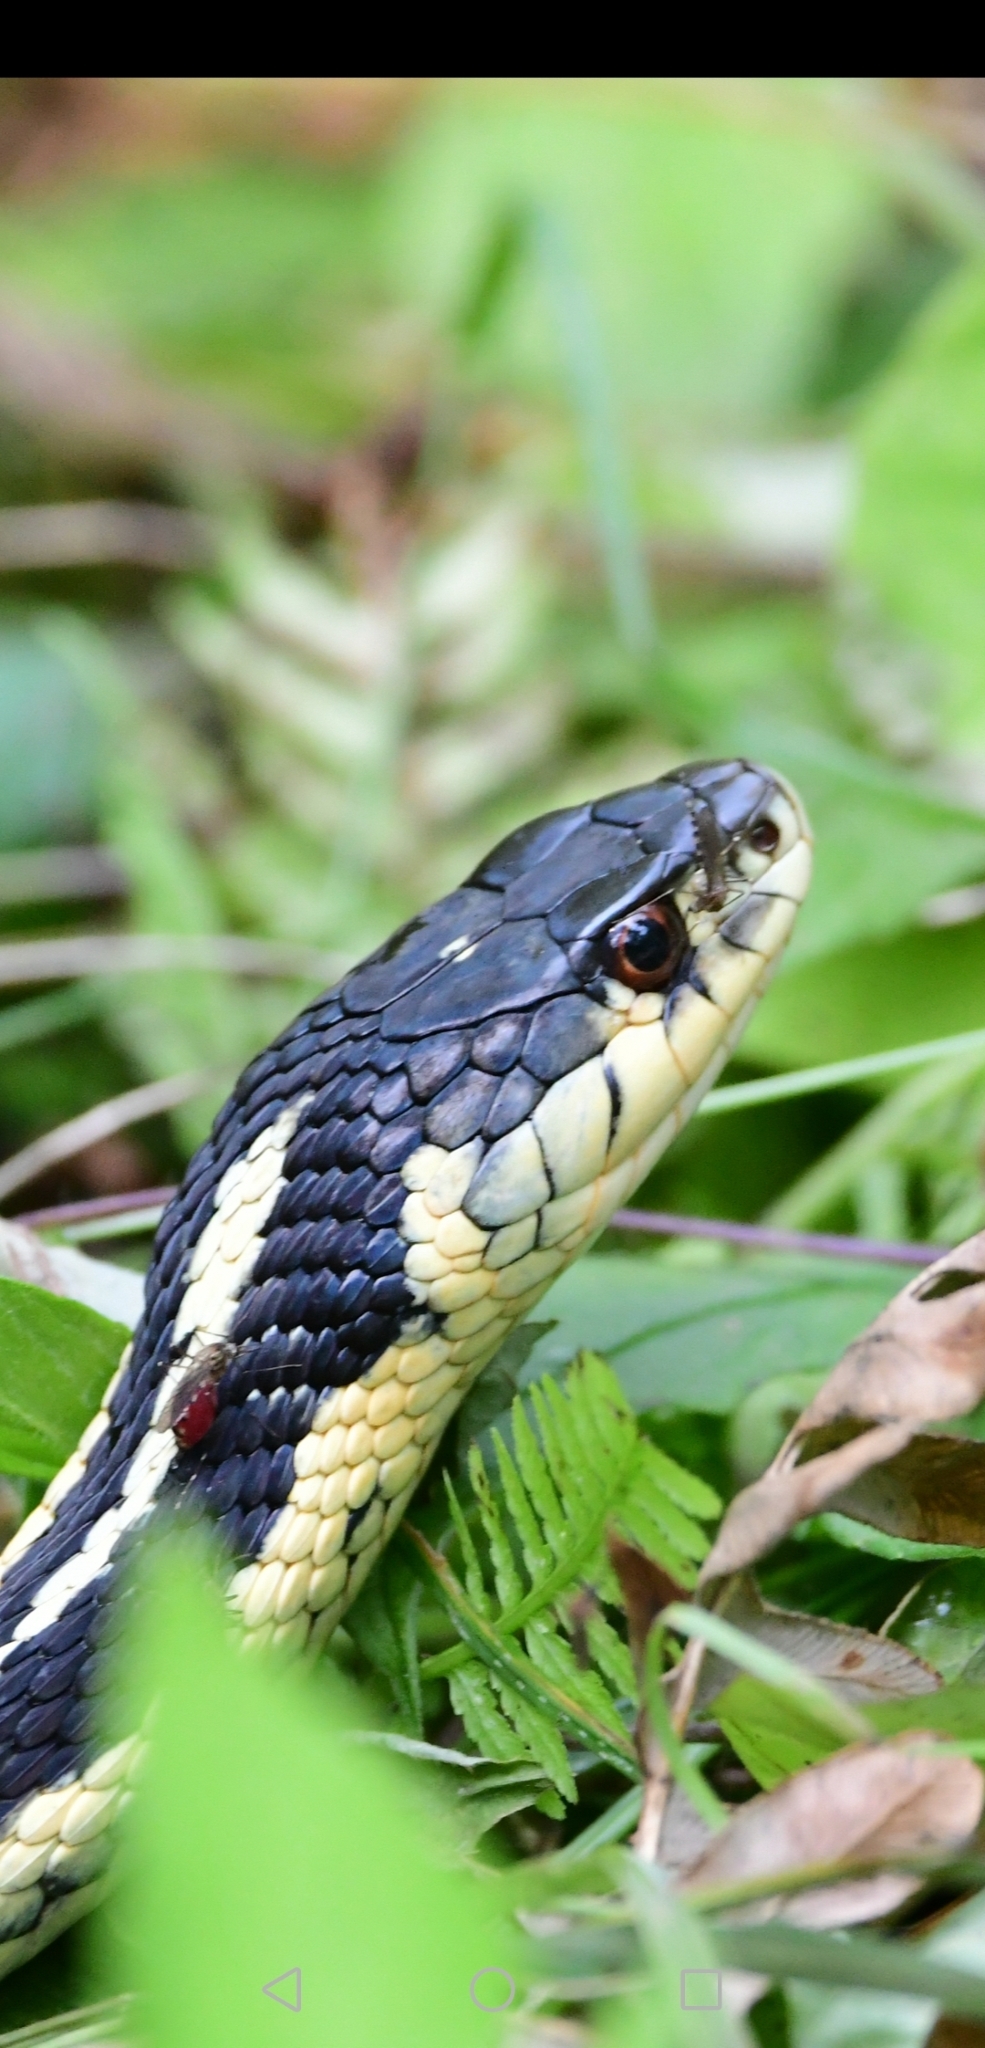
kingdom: Animalia
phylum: Chordata
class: Squamata
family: Colubridae
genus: Thamnophis
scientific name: Thamnophis sirtalis
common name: Common garter snake
